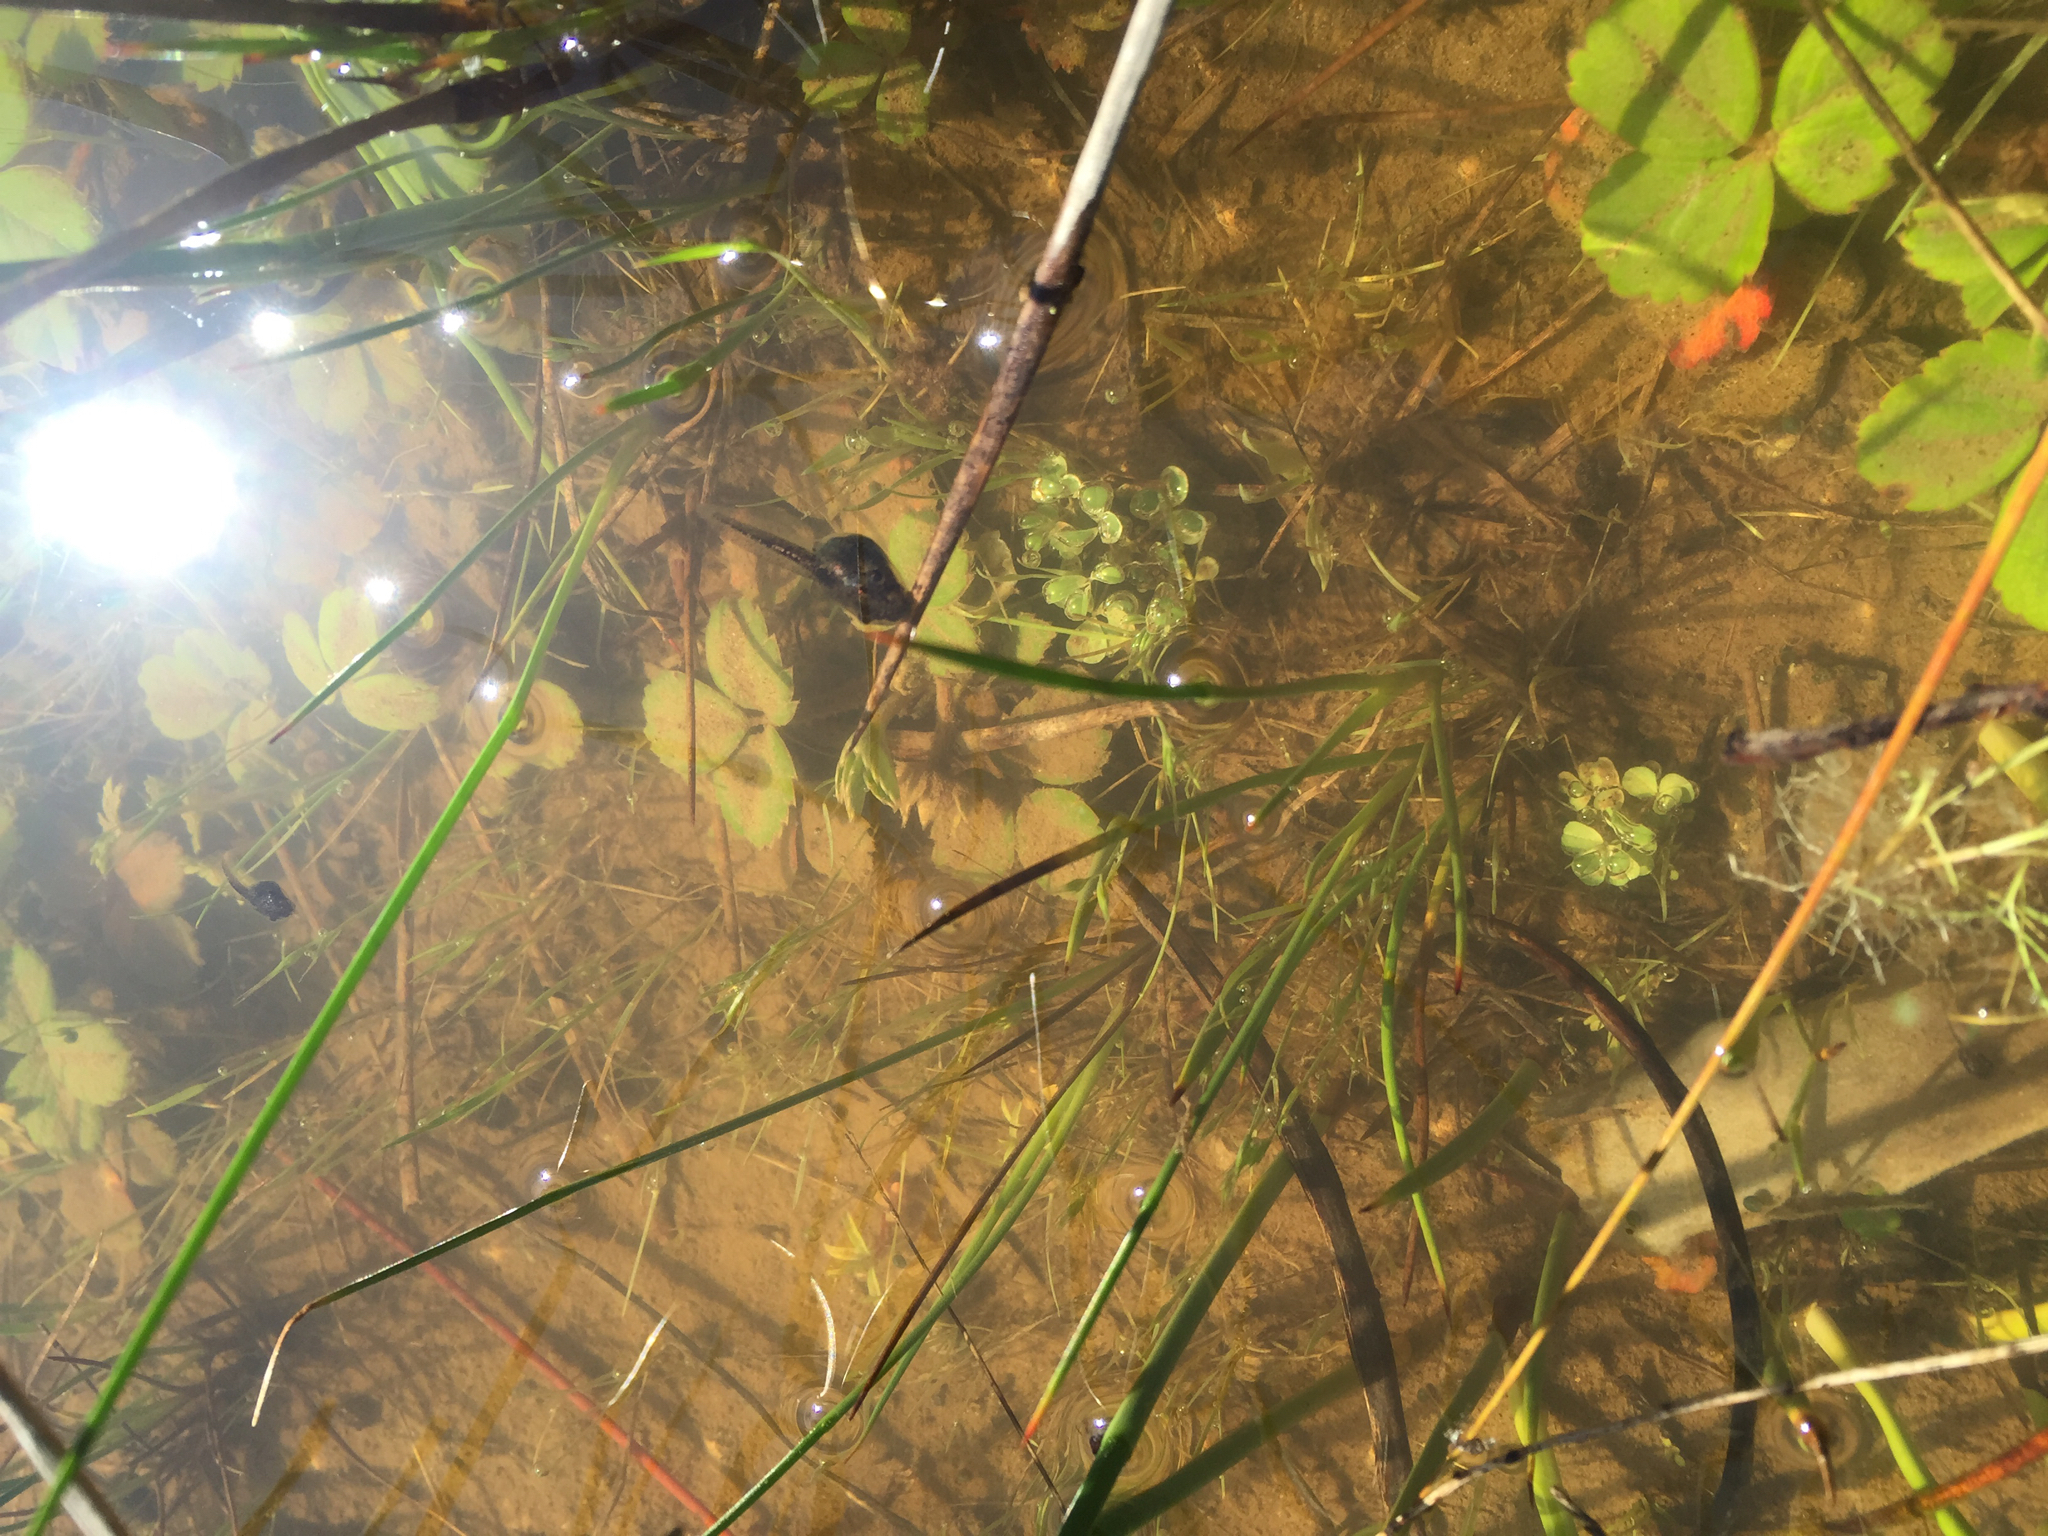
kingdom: Animalia
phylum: Chordata
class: Amphibia
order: Anura
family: Hylidae
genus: Pseudacris
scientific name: Pseudacris regilla
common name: Pacific chorus frog
